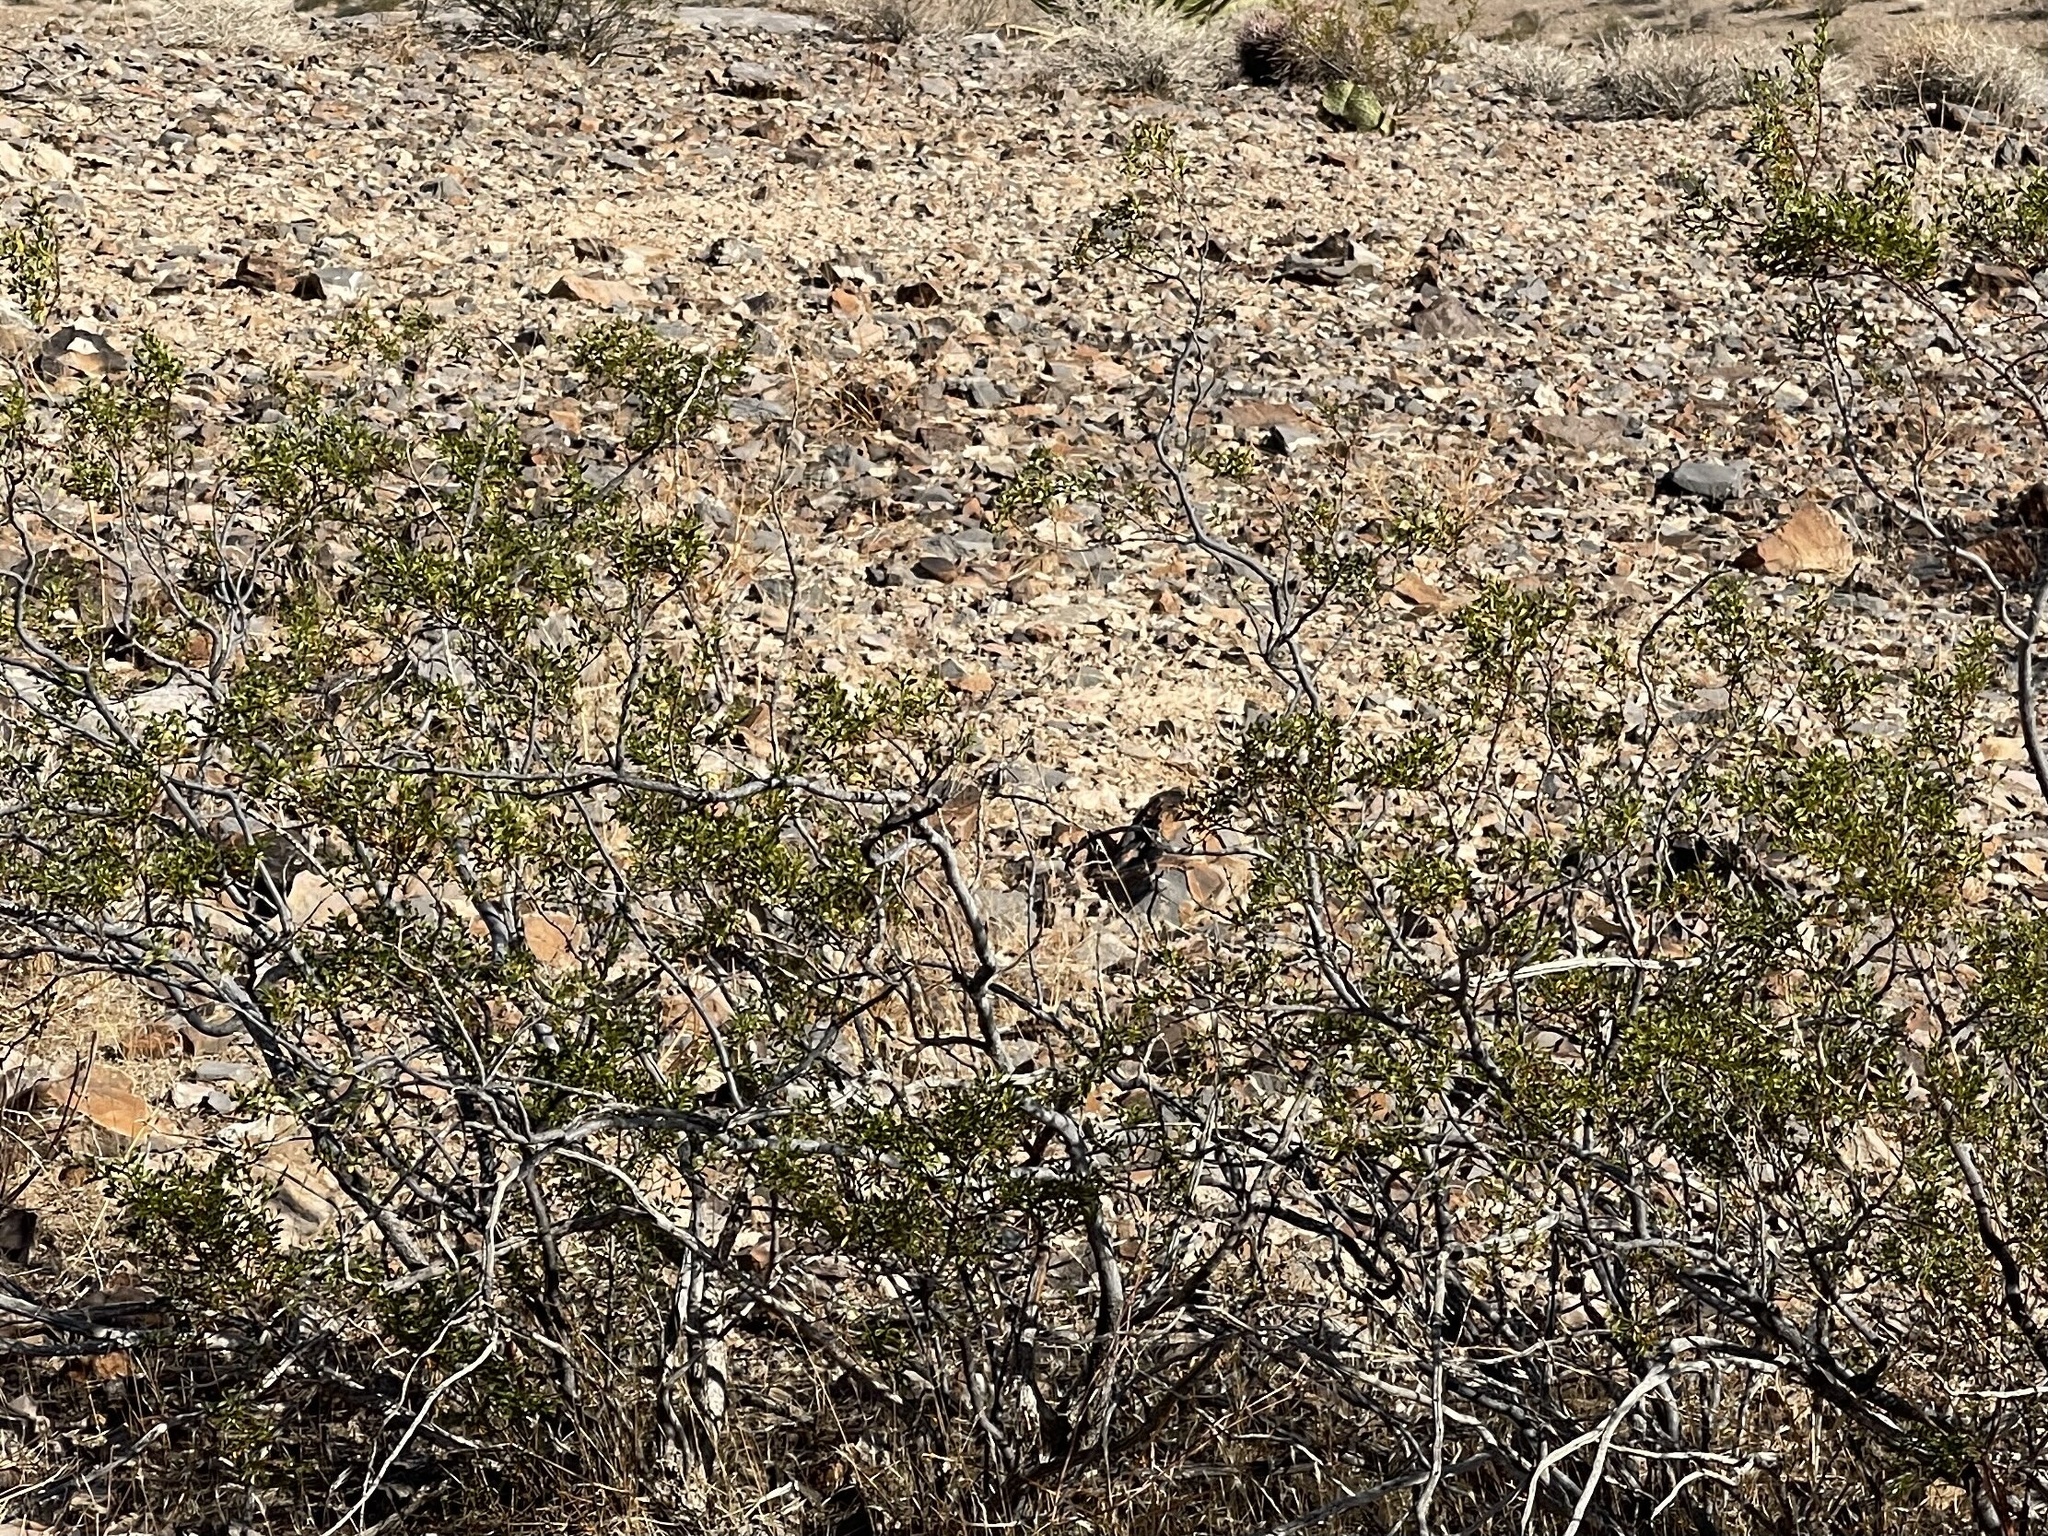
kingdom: Plantae
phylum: Tracheophyta
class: Magnoliopsida
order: Zygophyllales
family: Zygophyllaceae
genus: Larrea
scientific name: Larrea tridentata
